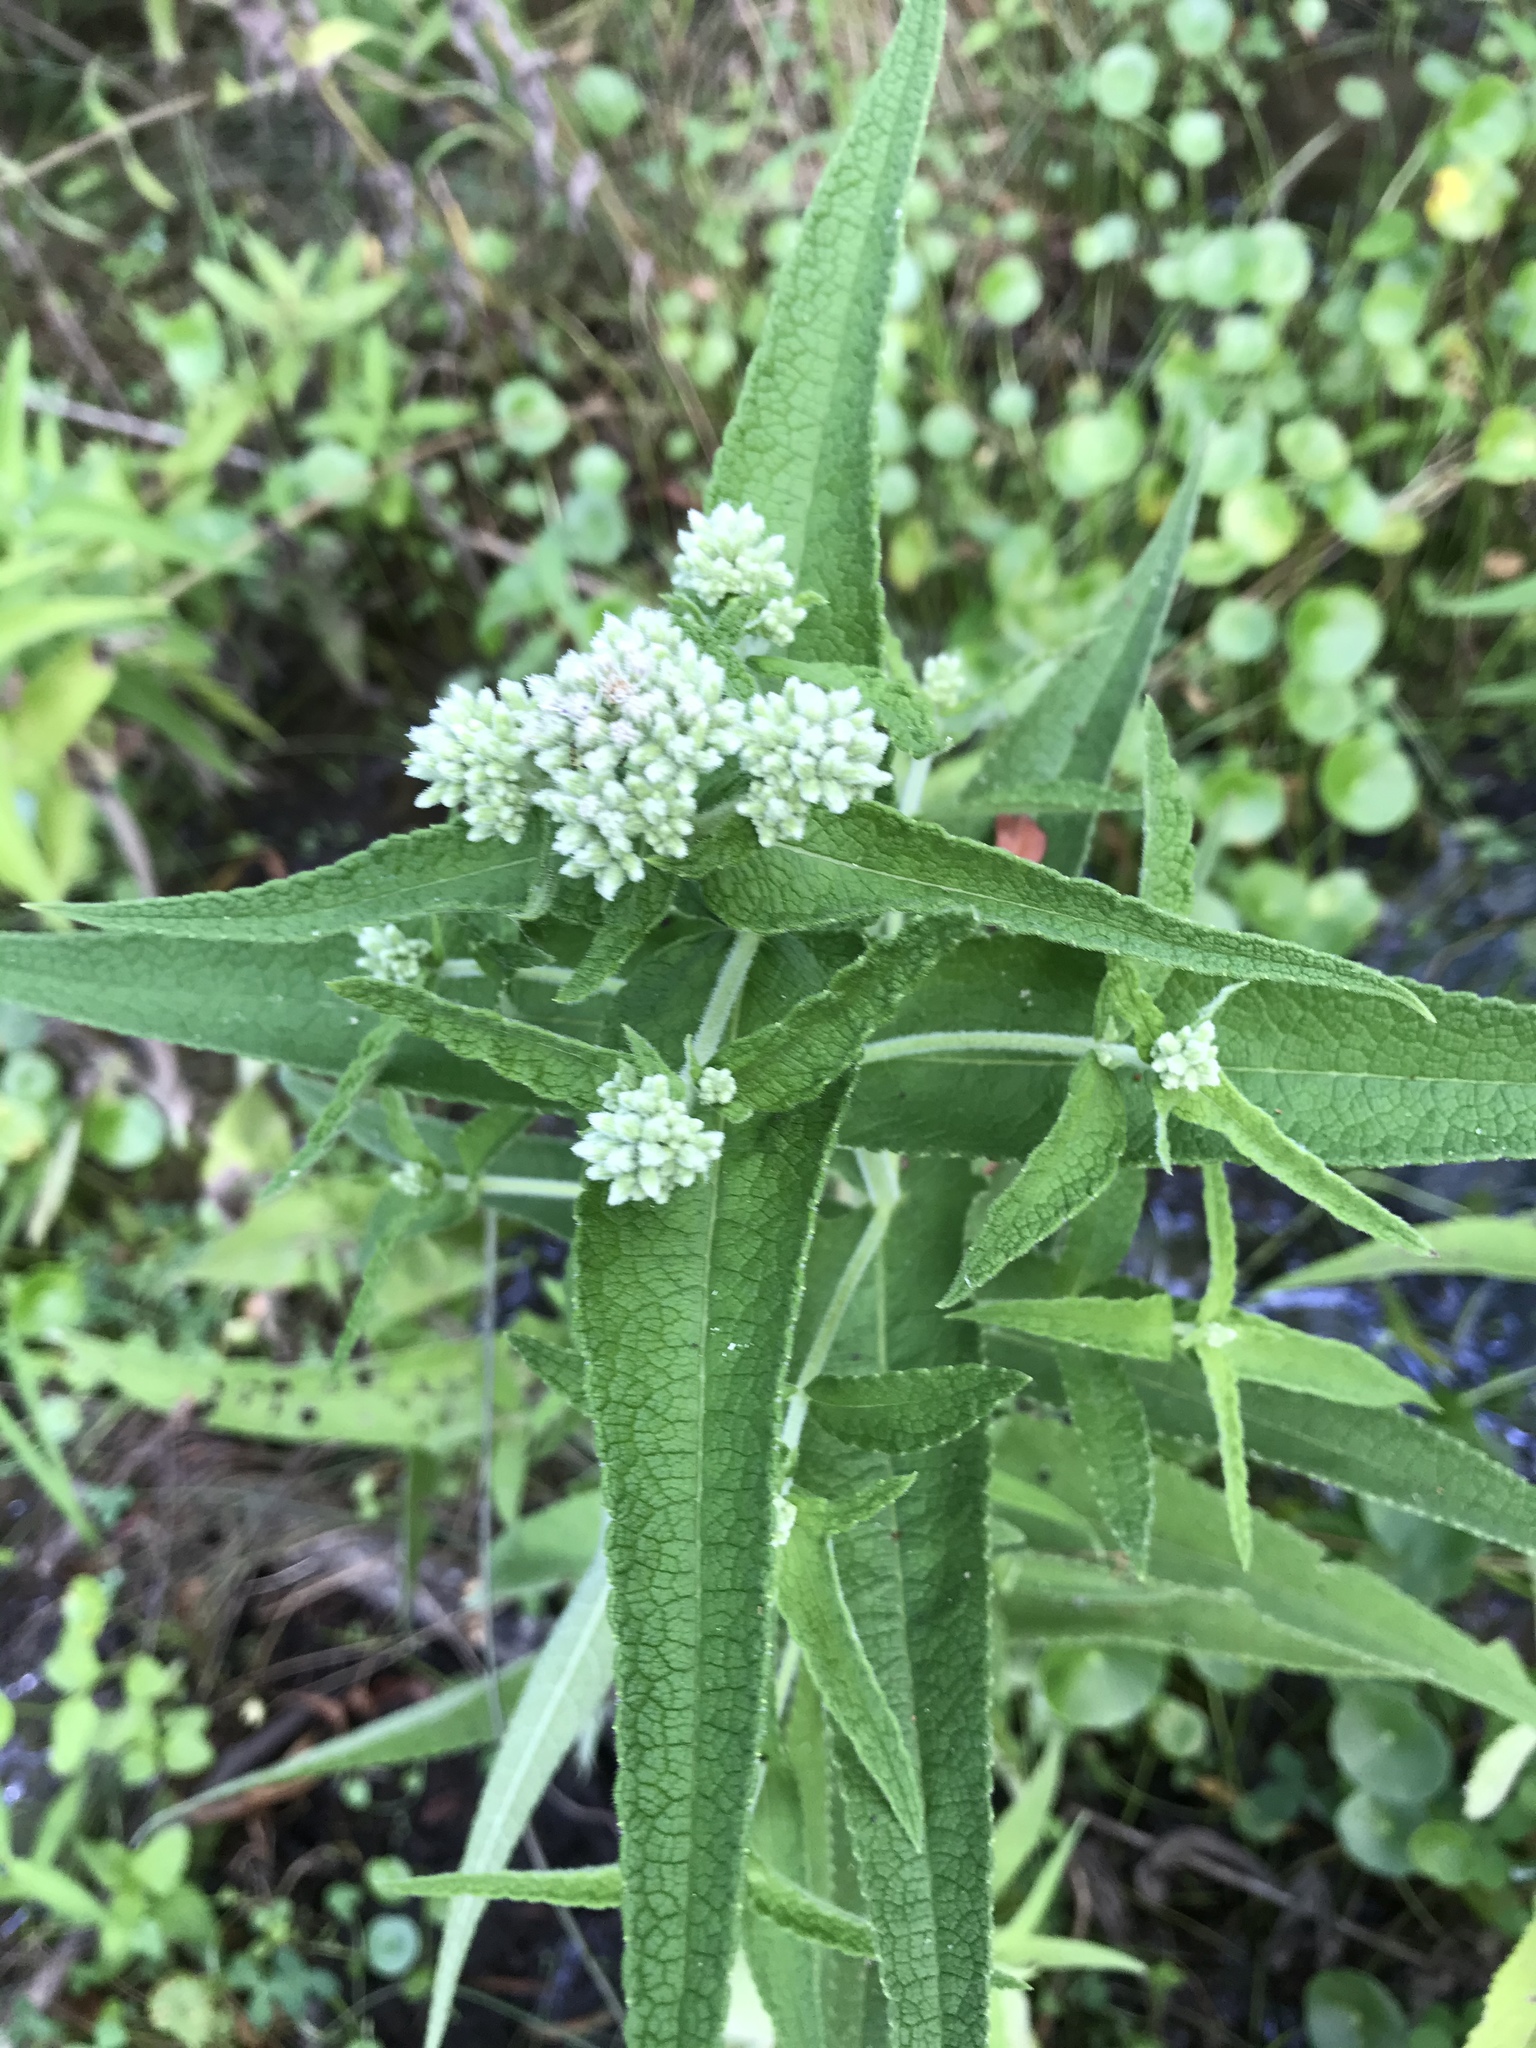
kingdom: Plantae
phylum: Tracheophyta
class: Magnoliopsida
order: Asterales
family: Asteraceae
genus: Eupatorium
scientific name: Eupatorium perfoliatum
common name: Boneset
